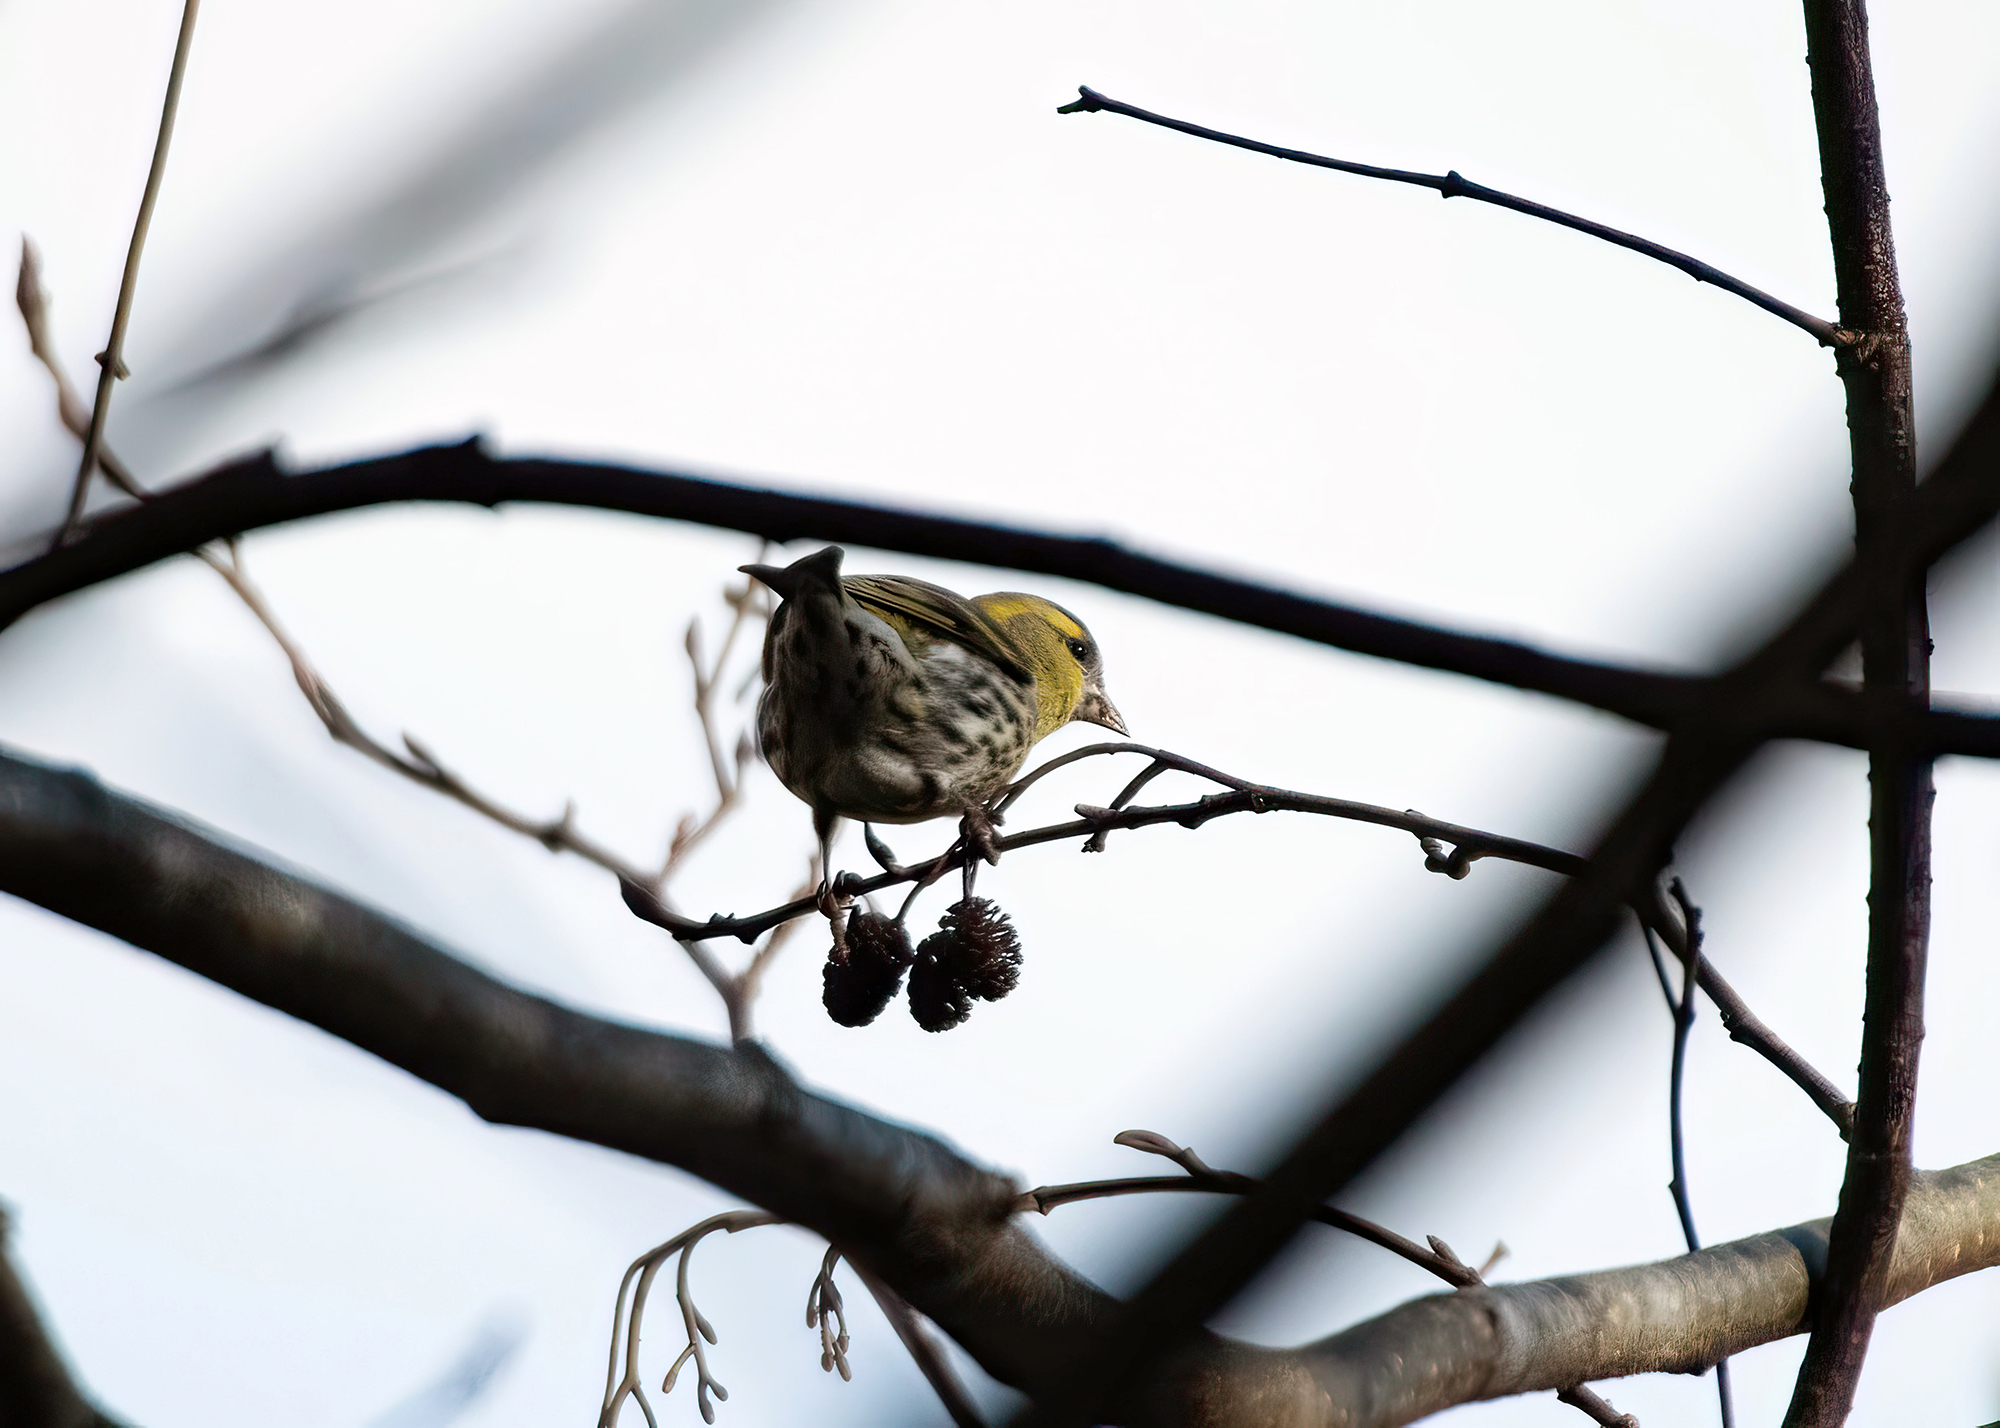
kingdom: Animalia
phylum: Chordata
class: Aves
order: Passeriformes
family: Fringillidae
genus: Spinus
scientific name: Spinus spinus
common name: Eurasian siskin
